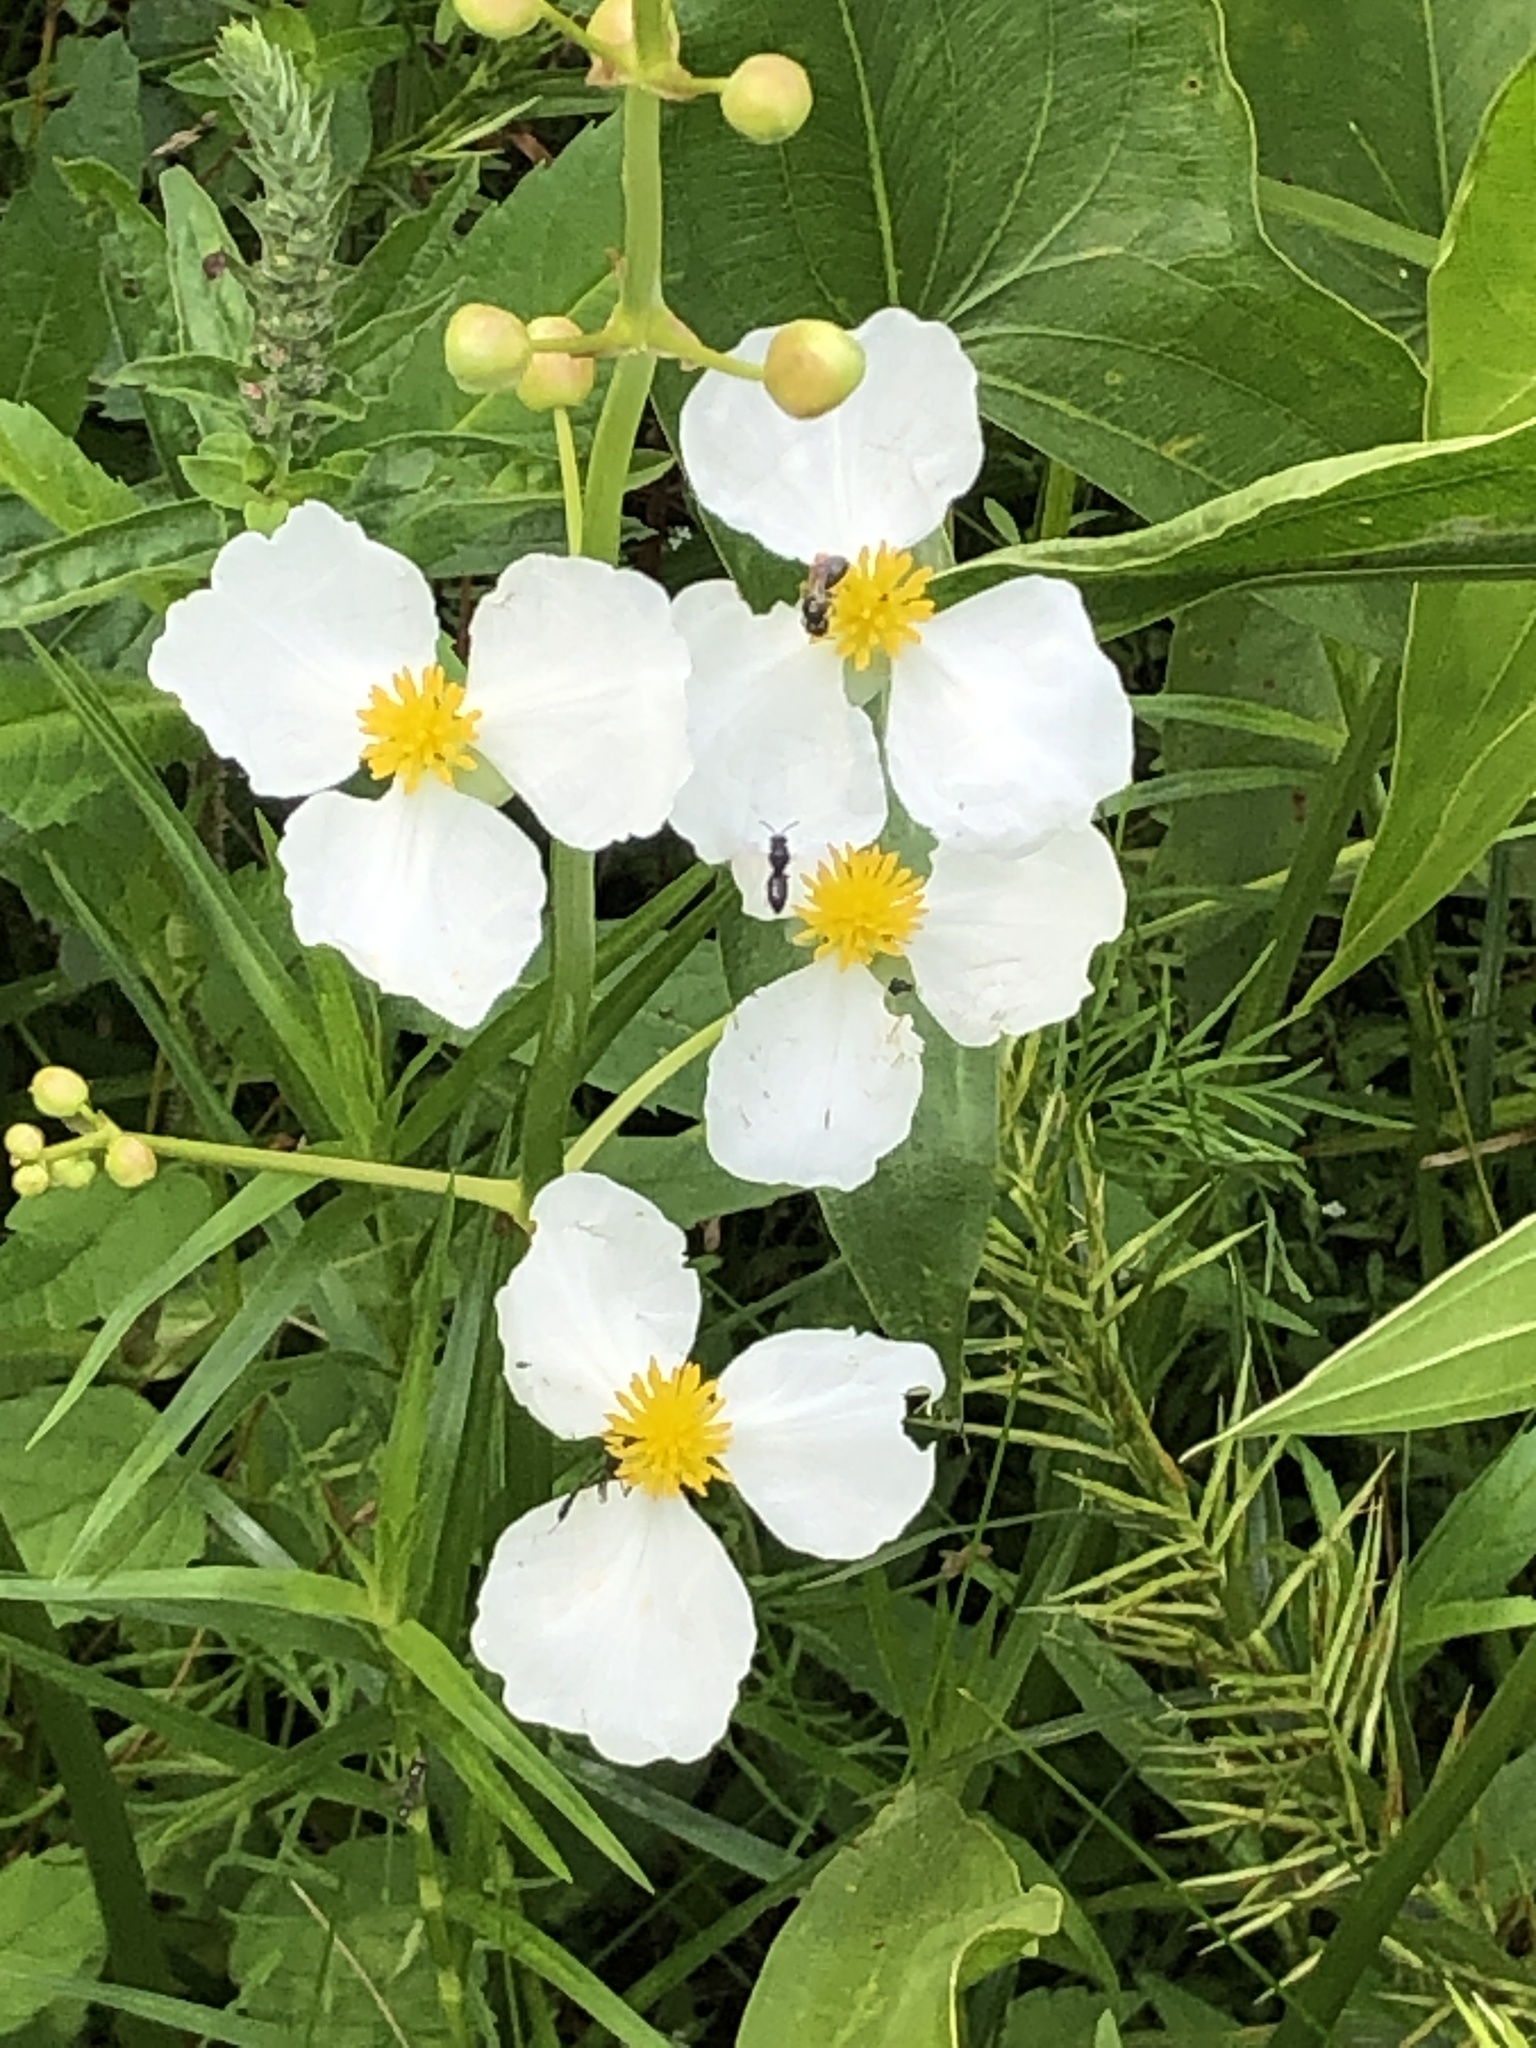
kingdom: Plantae
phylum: Tracheophyta
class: Liliopsida
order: Alismatales
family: Alismataceae
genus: Sagittaria
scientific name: Sagittaria latifolia
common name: Duck-potato
